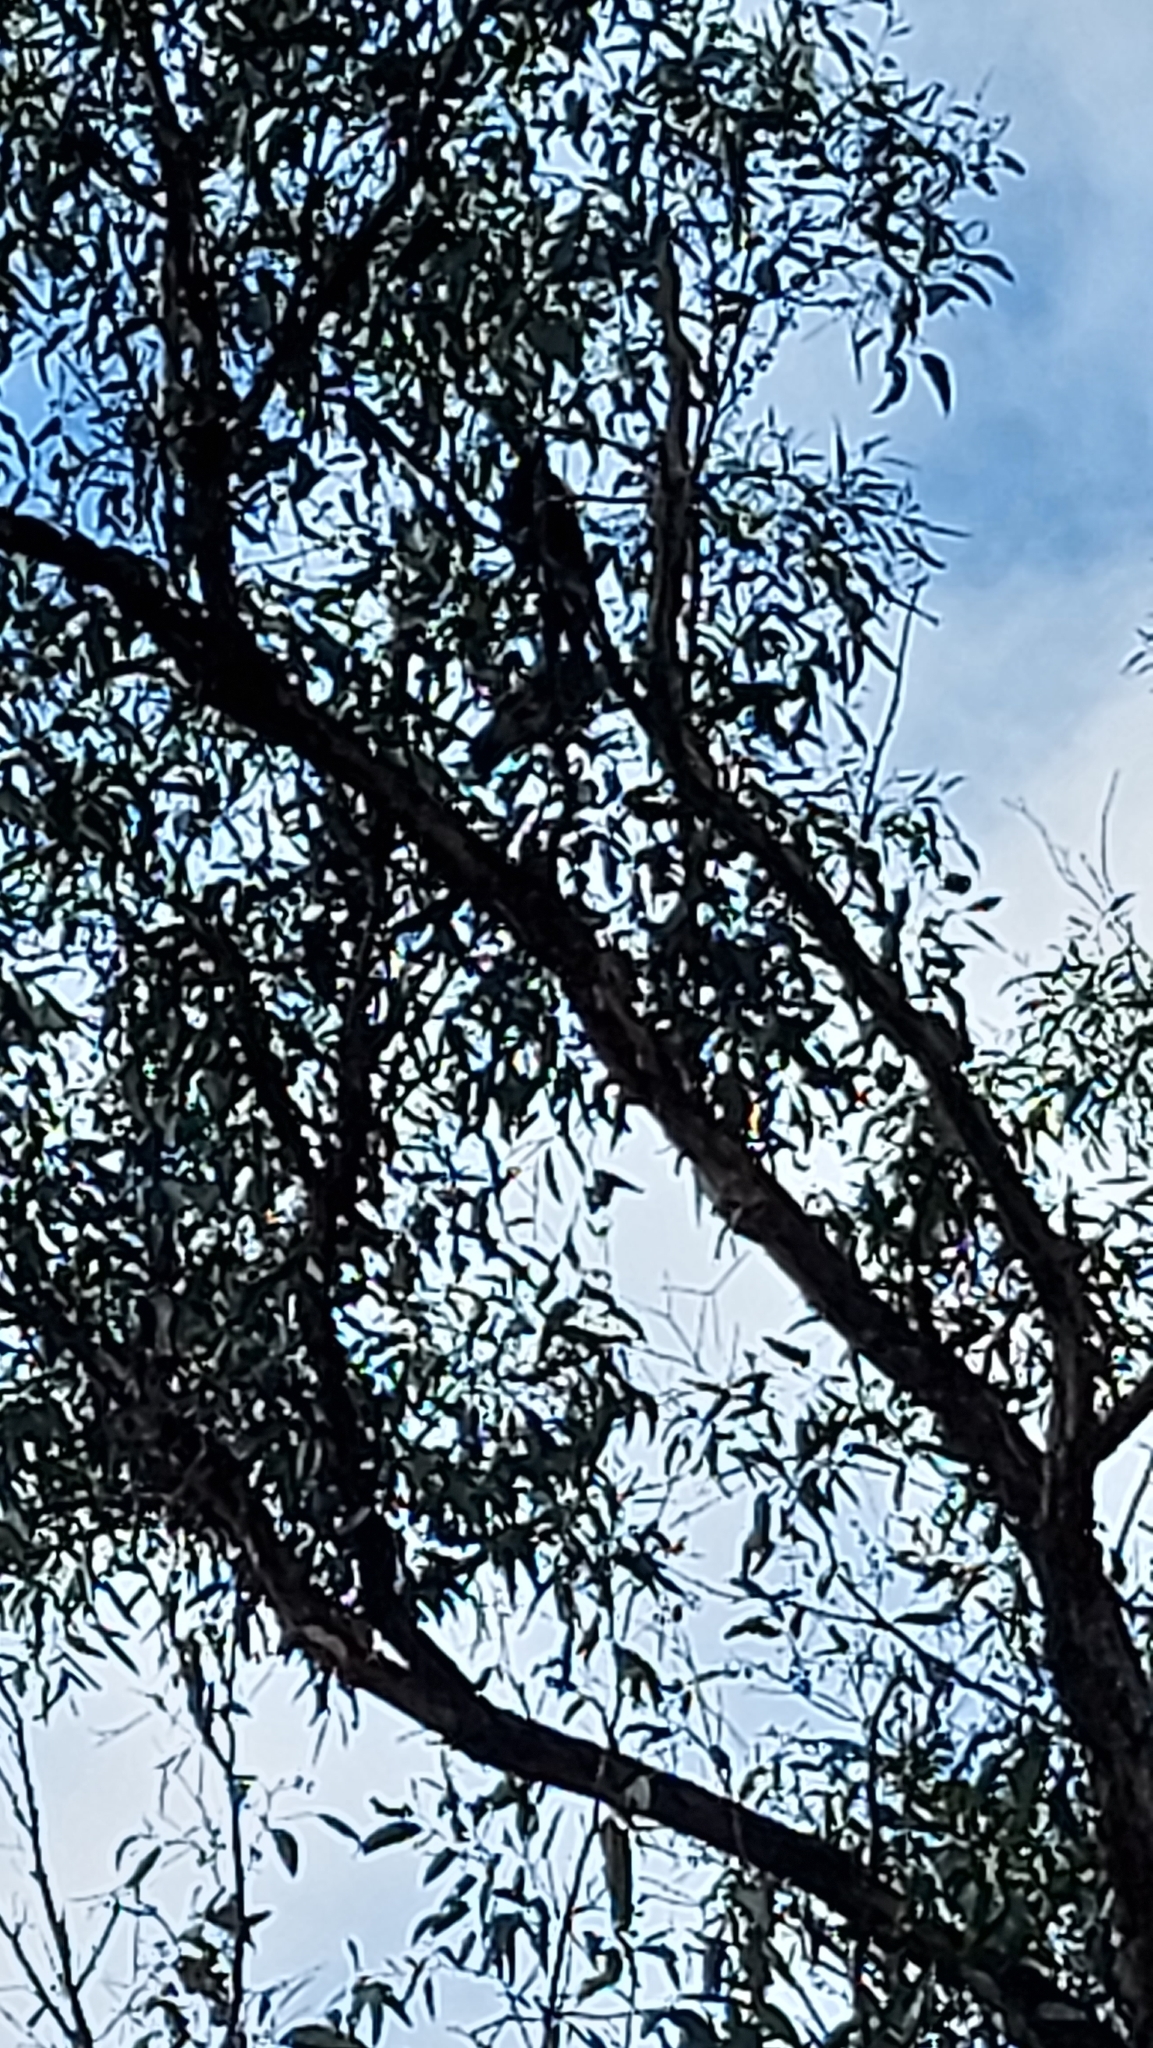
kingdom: Animalia
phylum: Chordata
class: Aves
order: Passeriformes
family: Cracticidae
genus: Gymnorhina
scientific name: Gymnorhina tibicen
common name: Australian magpie
